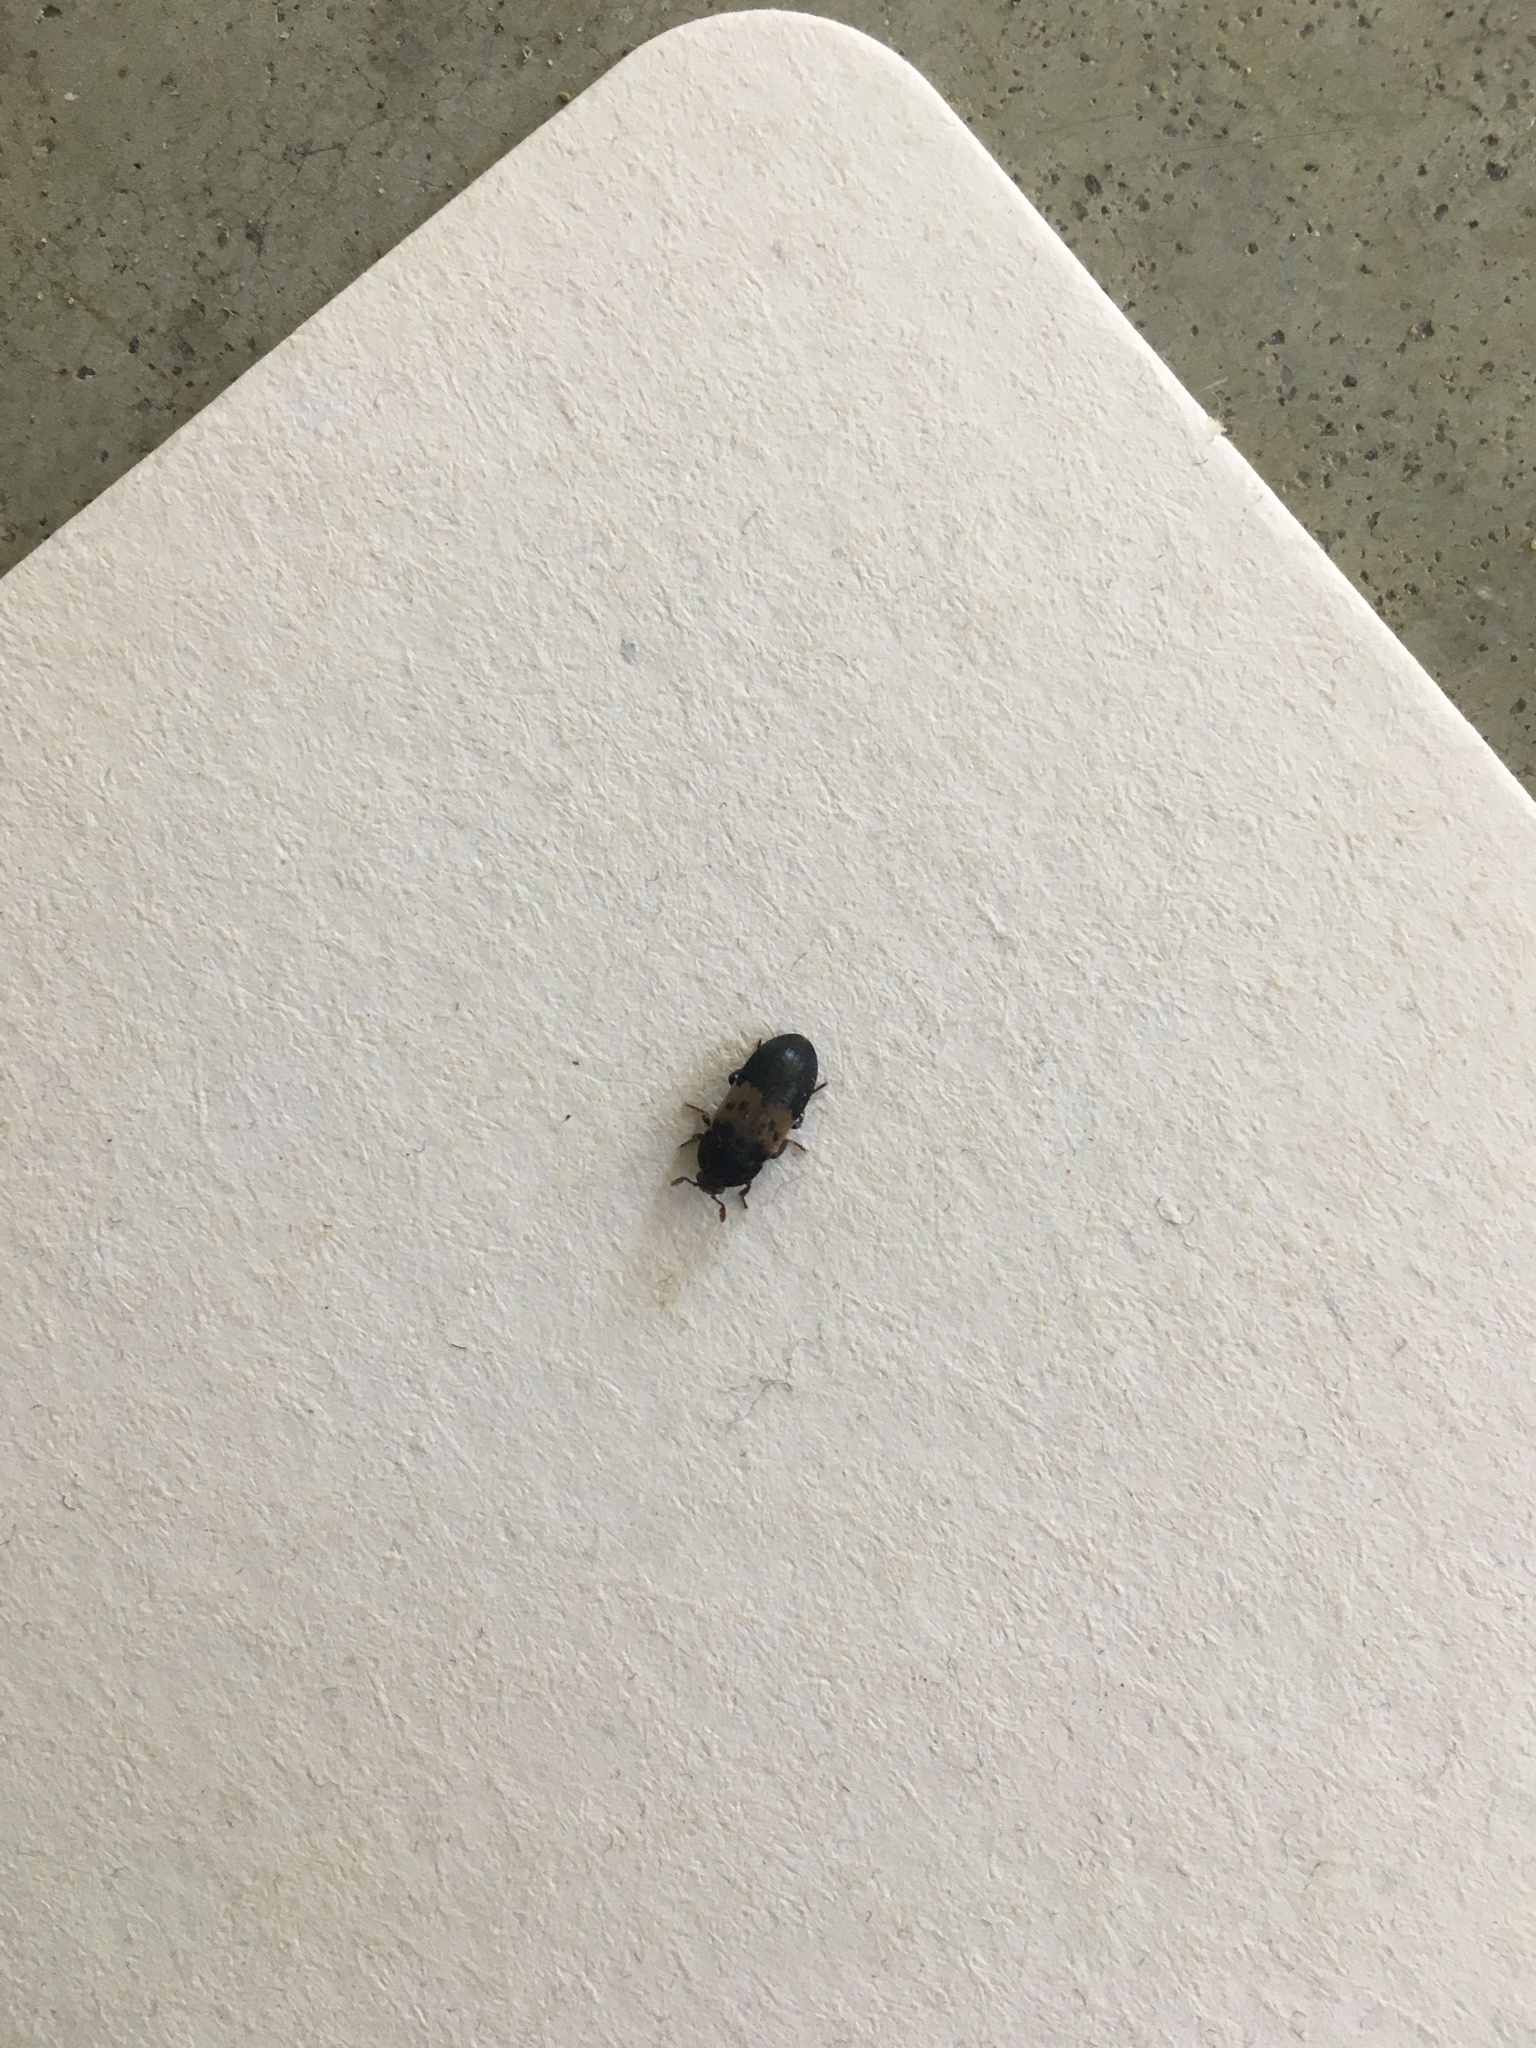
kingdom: Animalia
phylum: Arthropoda
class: Insecta
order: Coleoptera
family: Dermestidae
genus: Dermestes
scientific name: Dermestes lardarius
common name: Larder beetle
